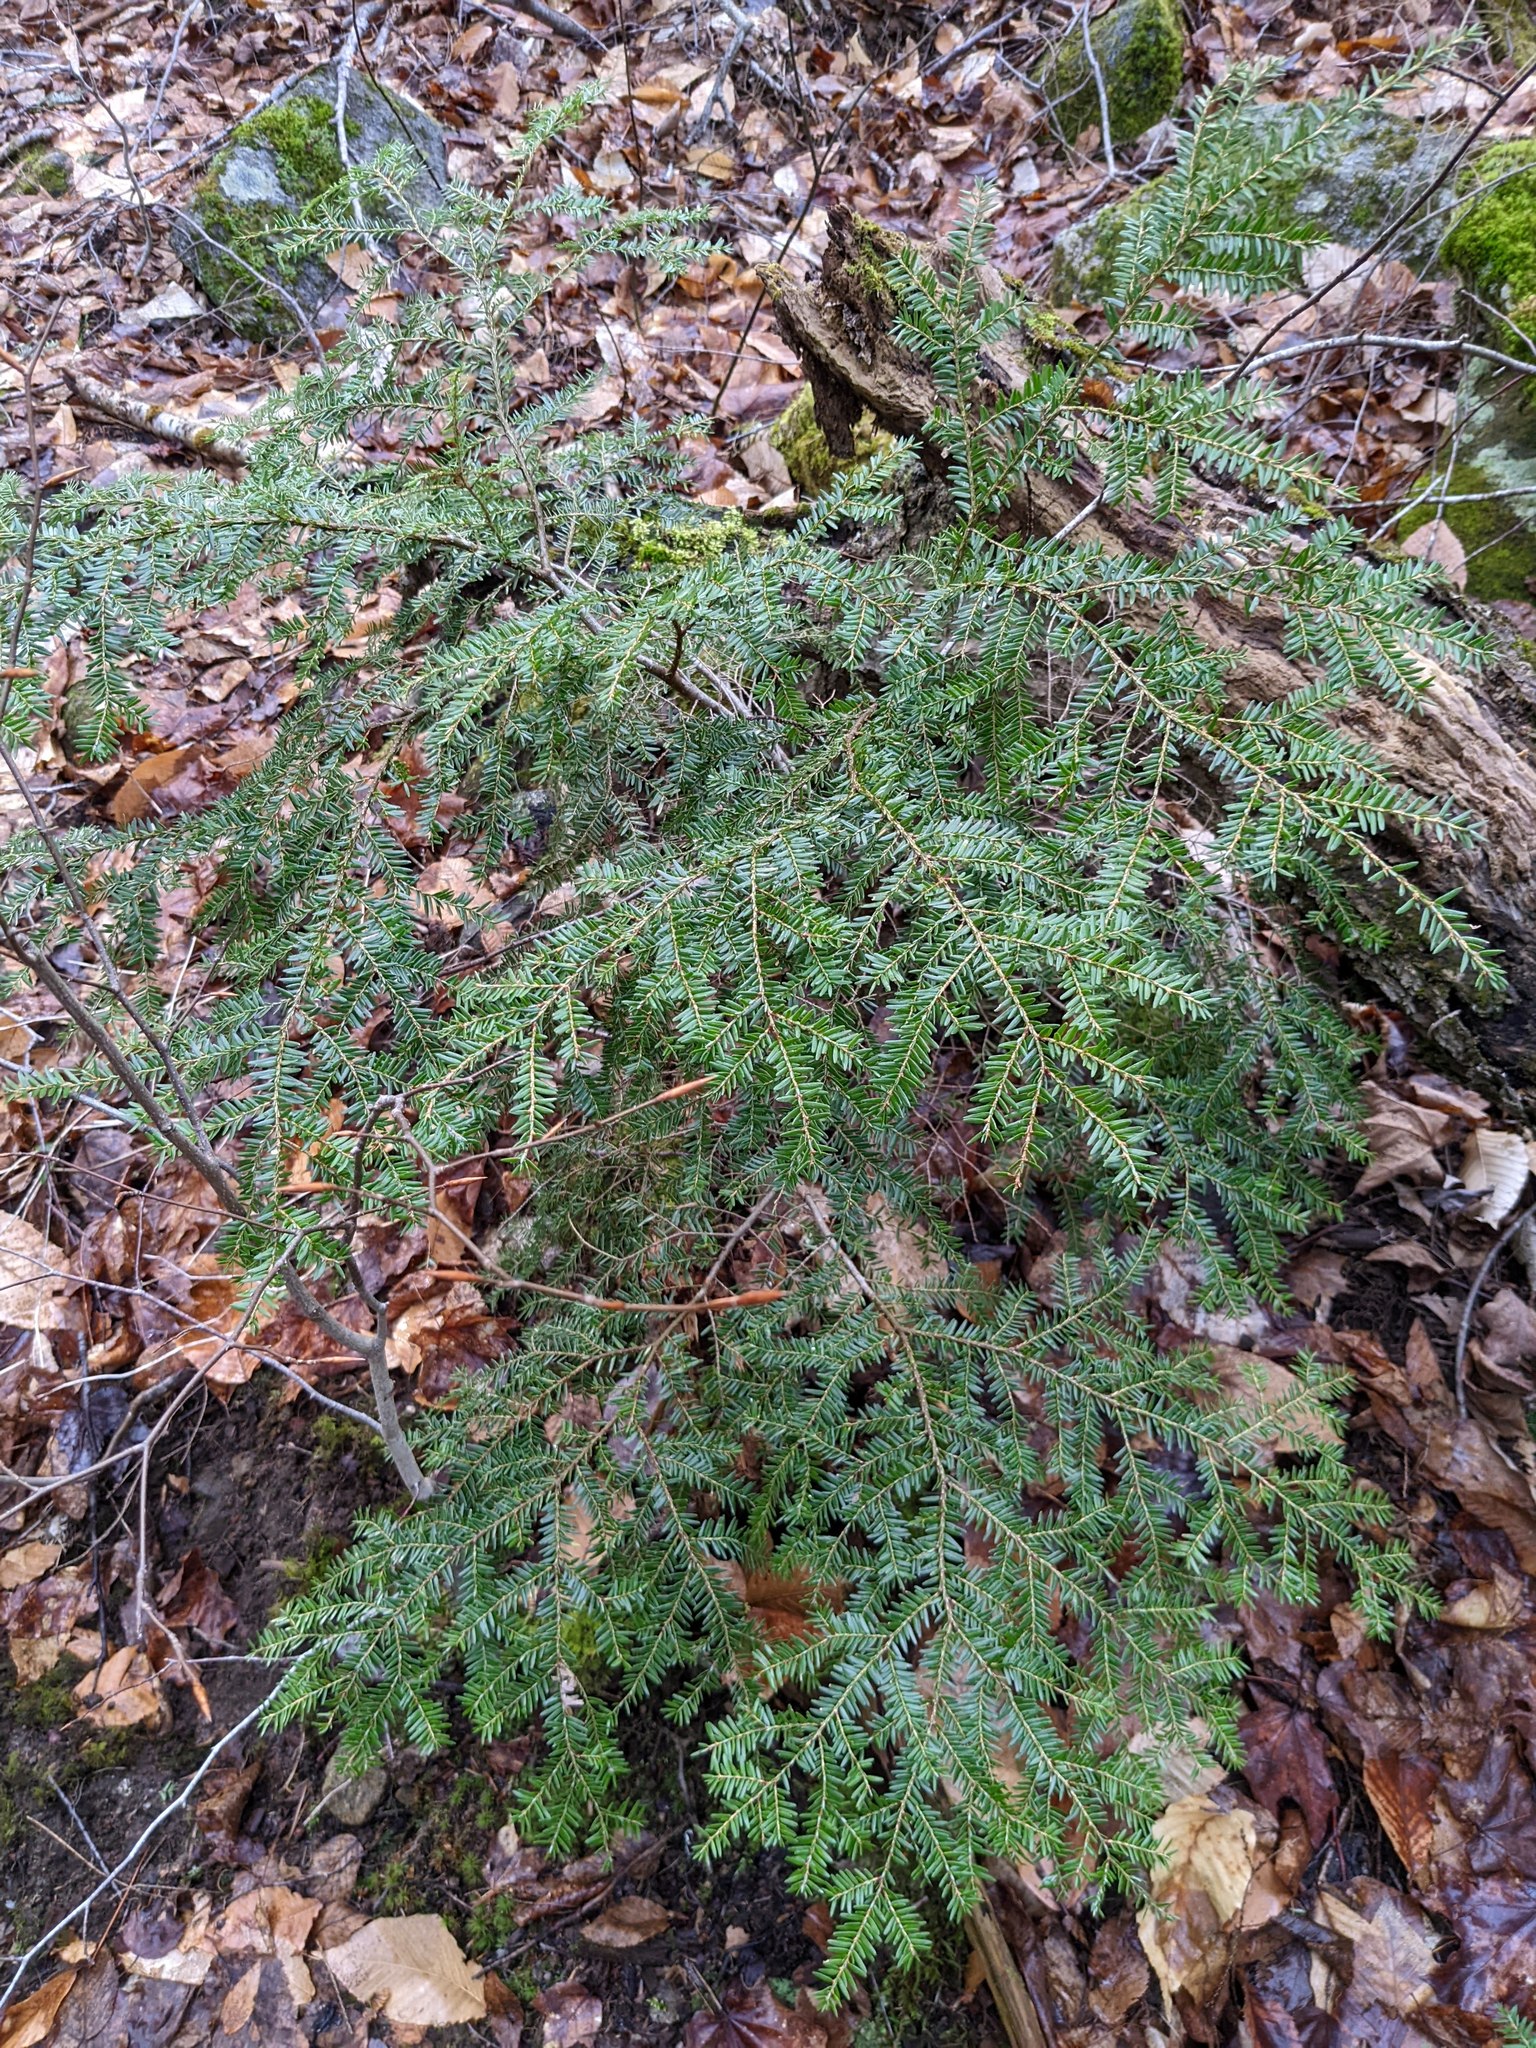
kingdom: Plantae
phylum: Tracheophyta
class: Pinopsida
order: Pinales
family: Pinaceae
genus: Tsuga
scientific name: Tsuga canadensis
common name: Eastern hemlock
